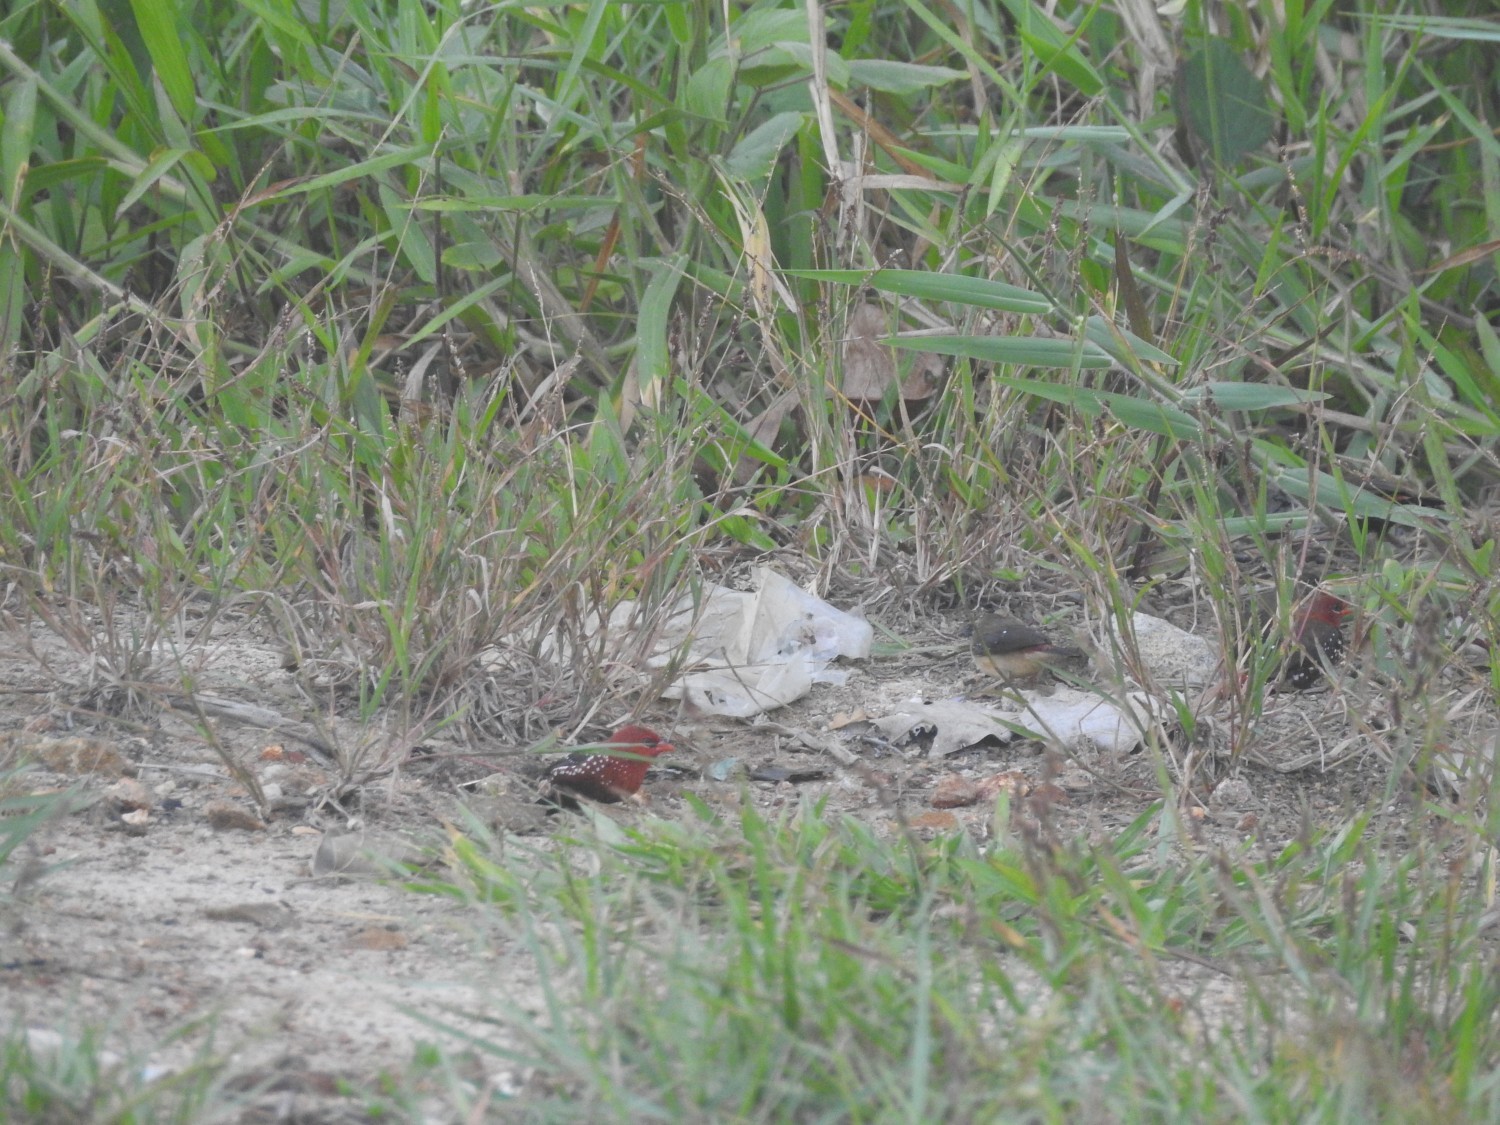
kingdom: Animalia
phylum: Chordata
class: Aves
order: Passeriformes
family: Estrildidae
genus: Amandava
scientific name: Amandava amandava
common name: Red avadavat
